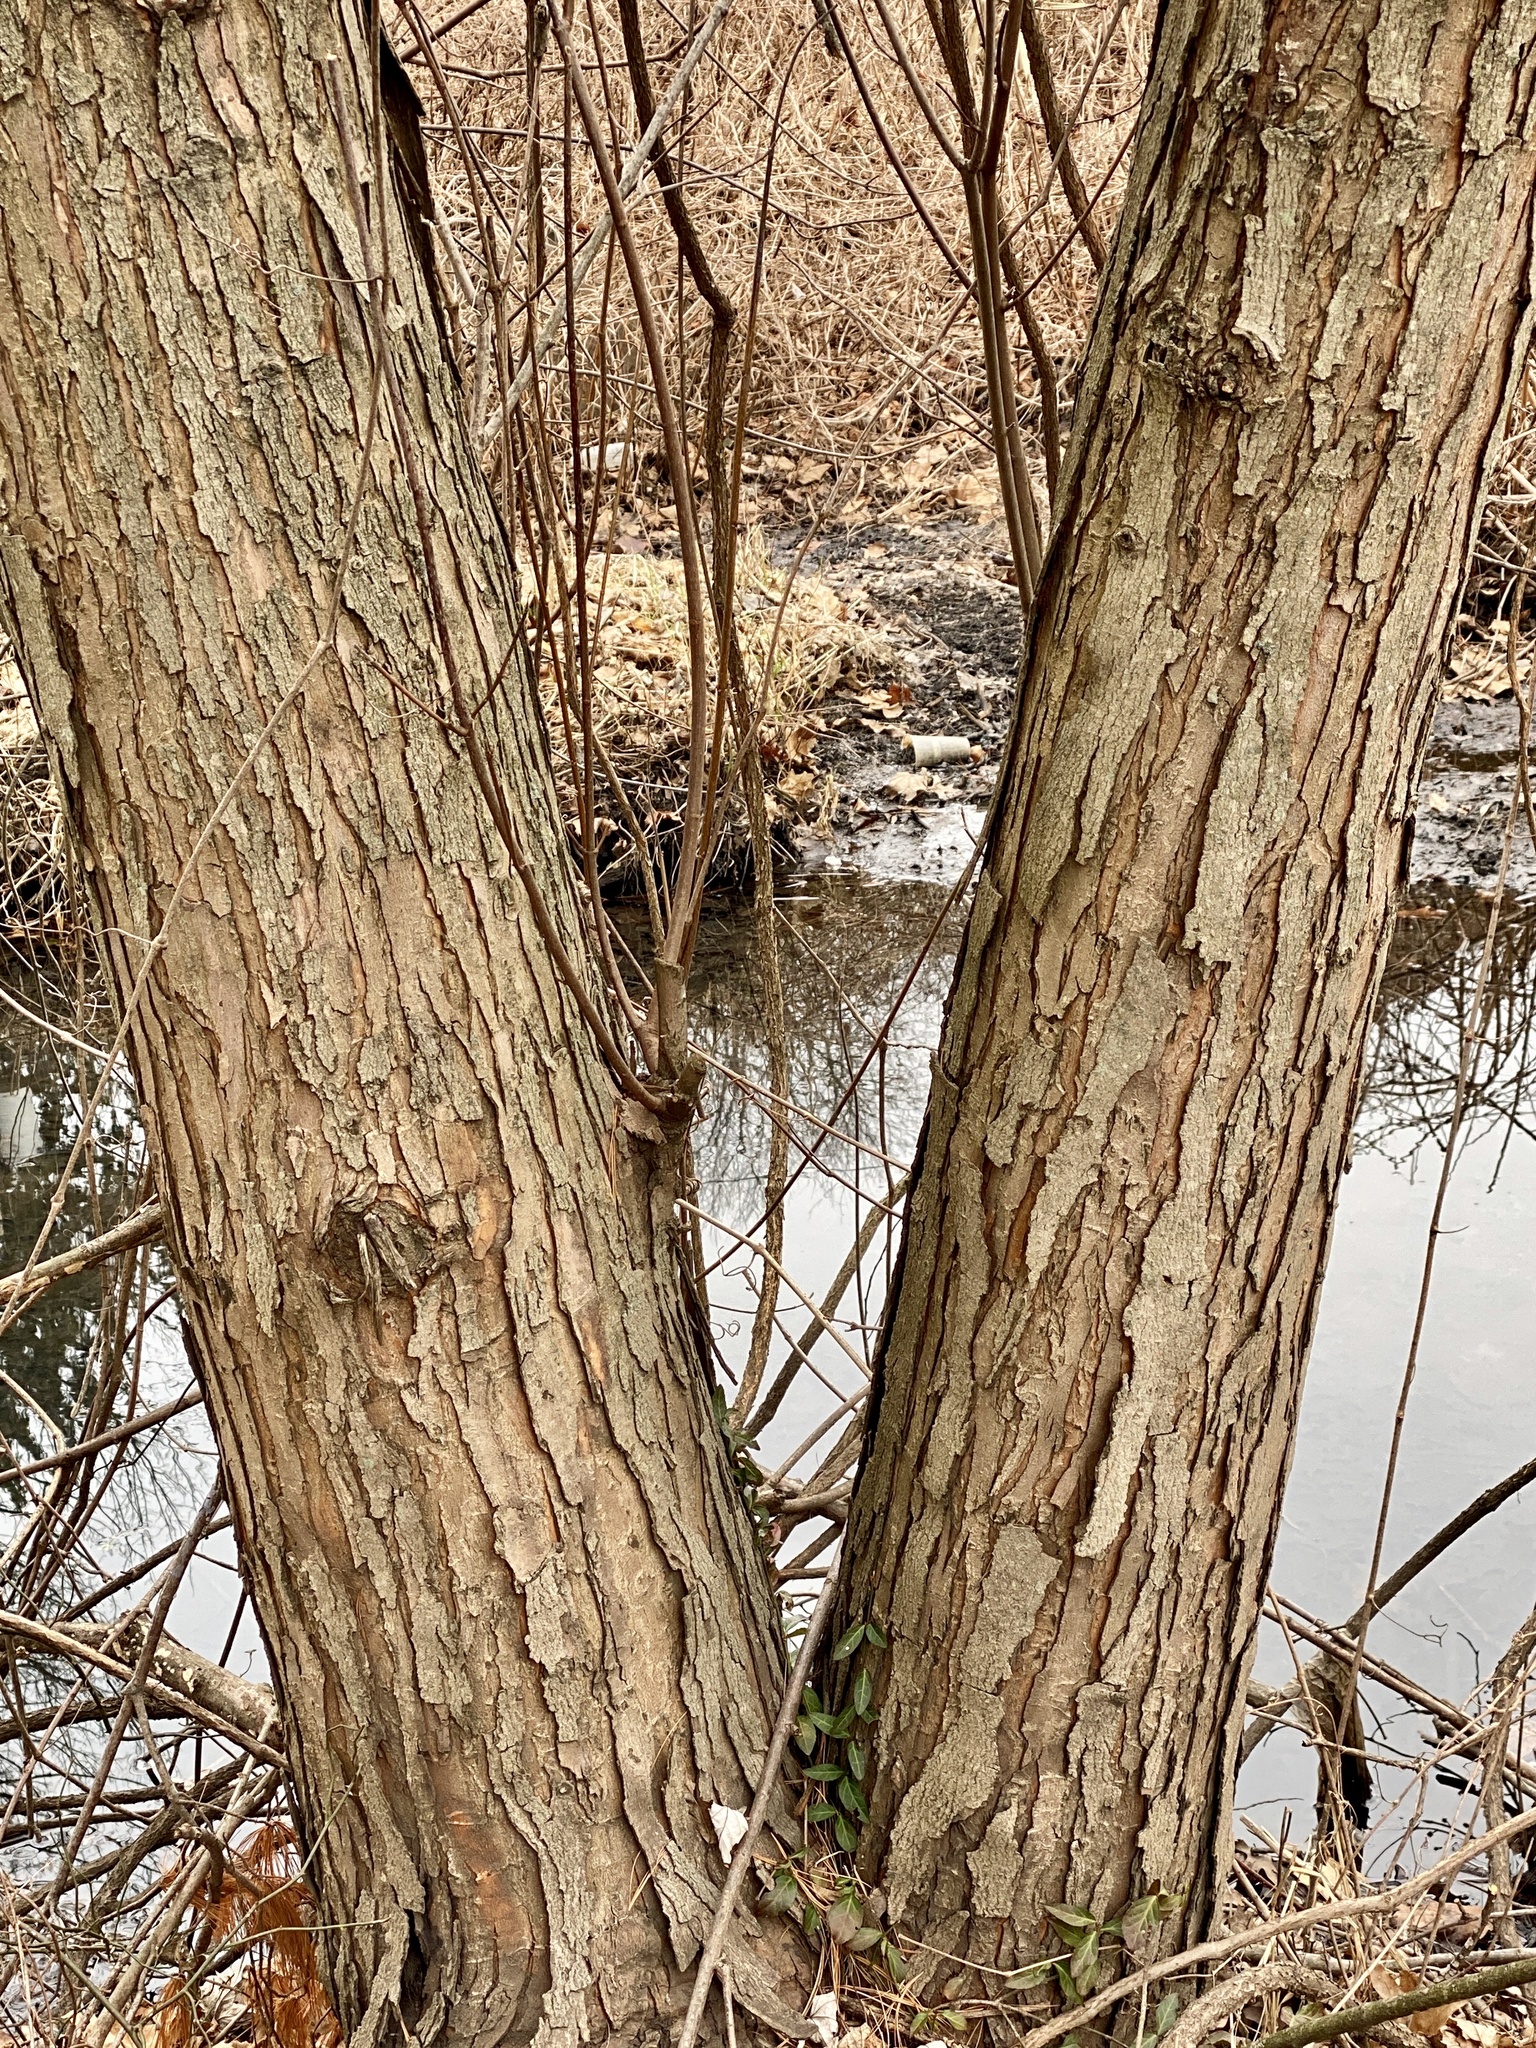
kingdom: Plantae
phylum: Tracheophyta
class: Magnoliopsida
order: Sapindales
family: Sapindaceae
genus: Acer
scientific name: Acer rubrum
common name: Red maple
